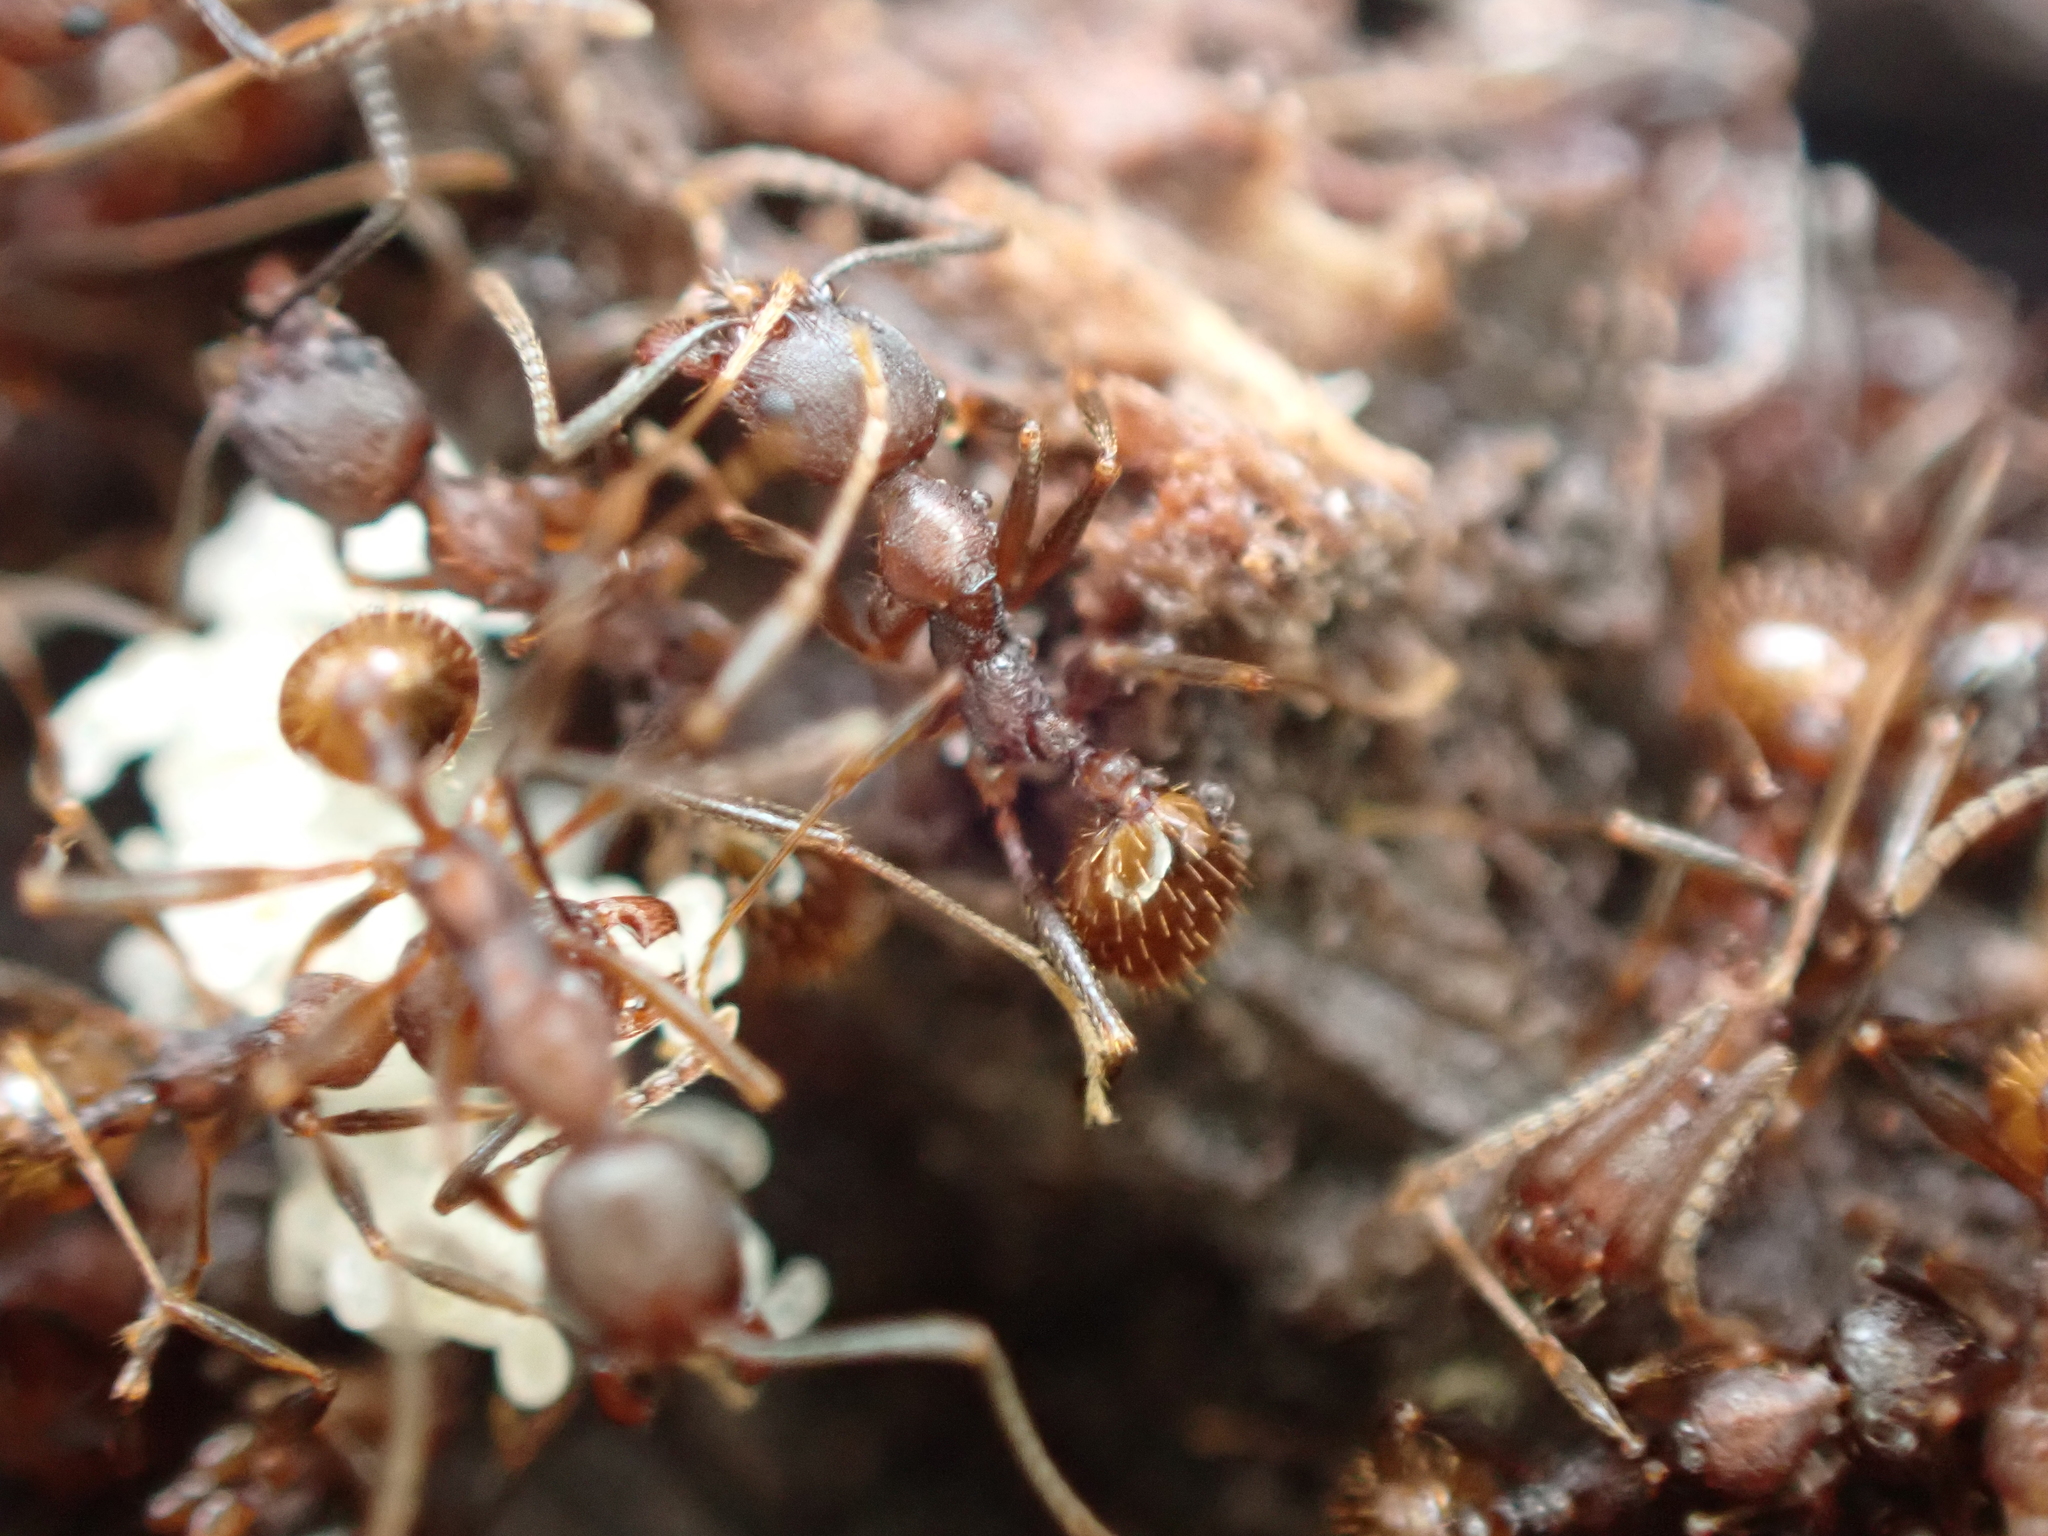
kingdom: Animalia
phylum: Arthropoda
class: Insecta
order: Hymenoptera
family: Formicidae
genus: Aphaenogaster
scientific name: Aphaenogaster fulva
